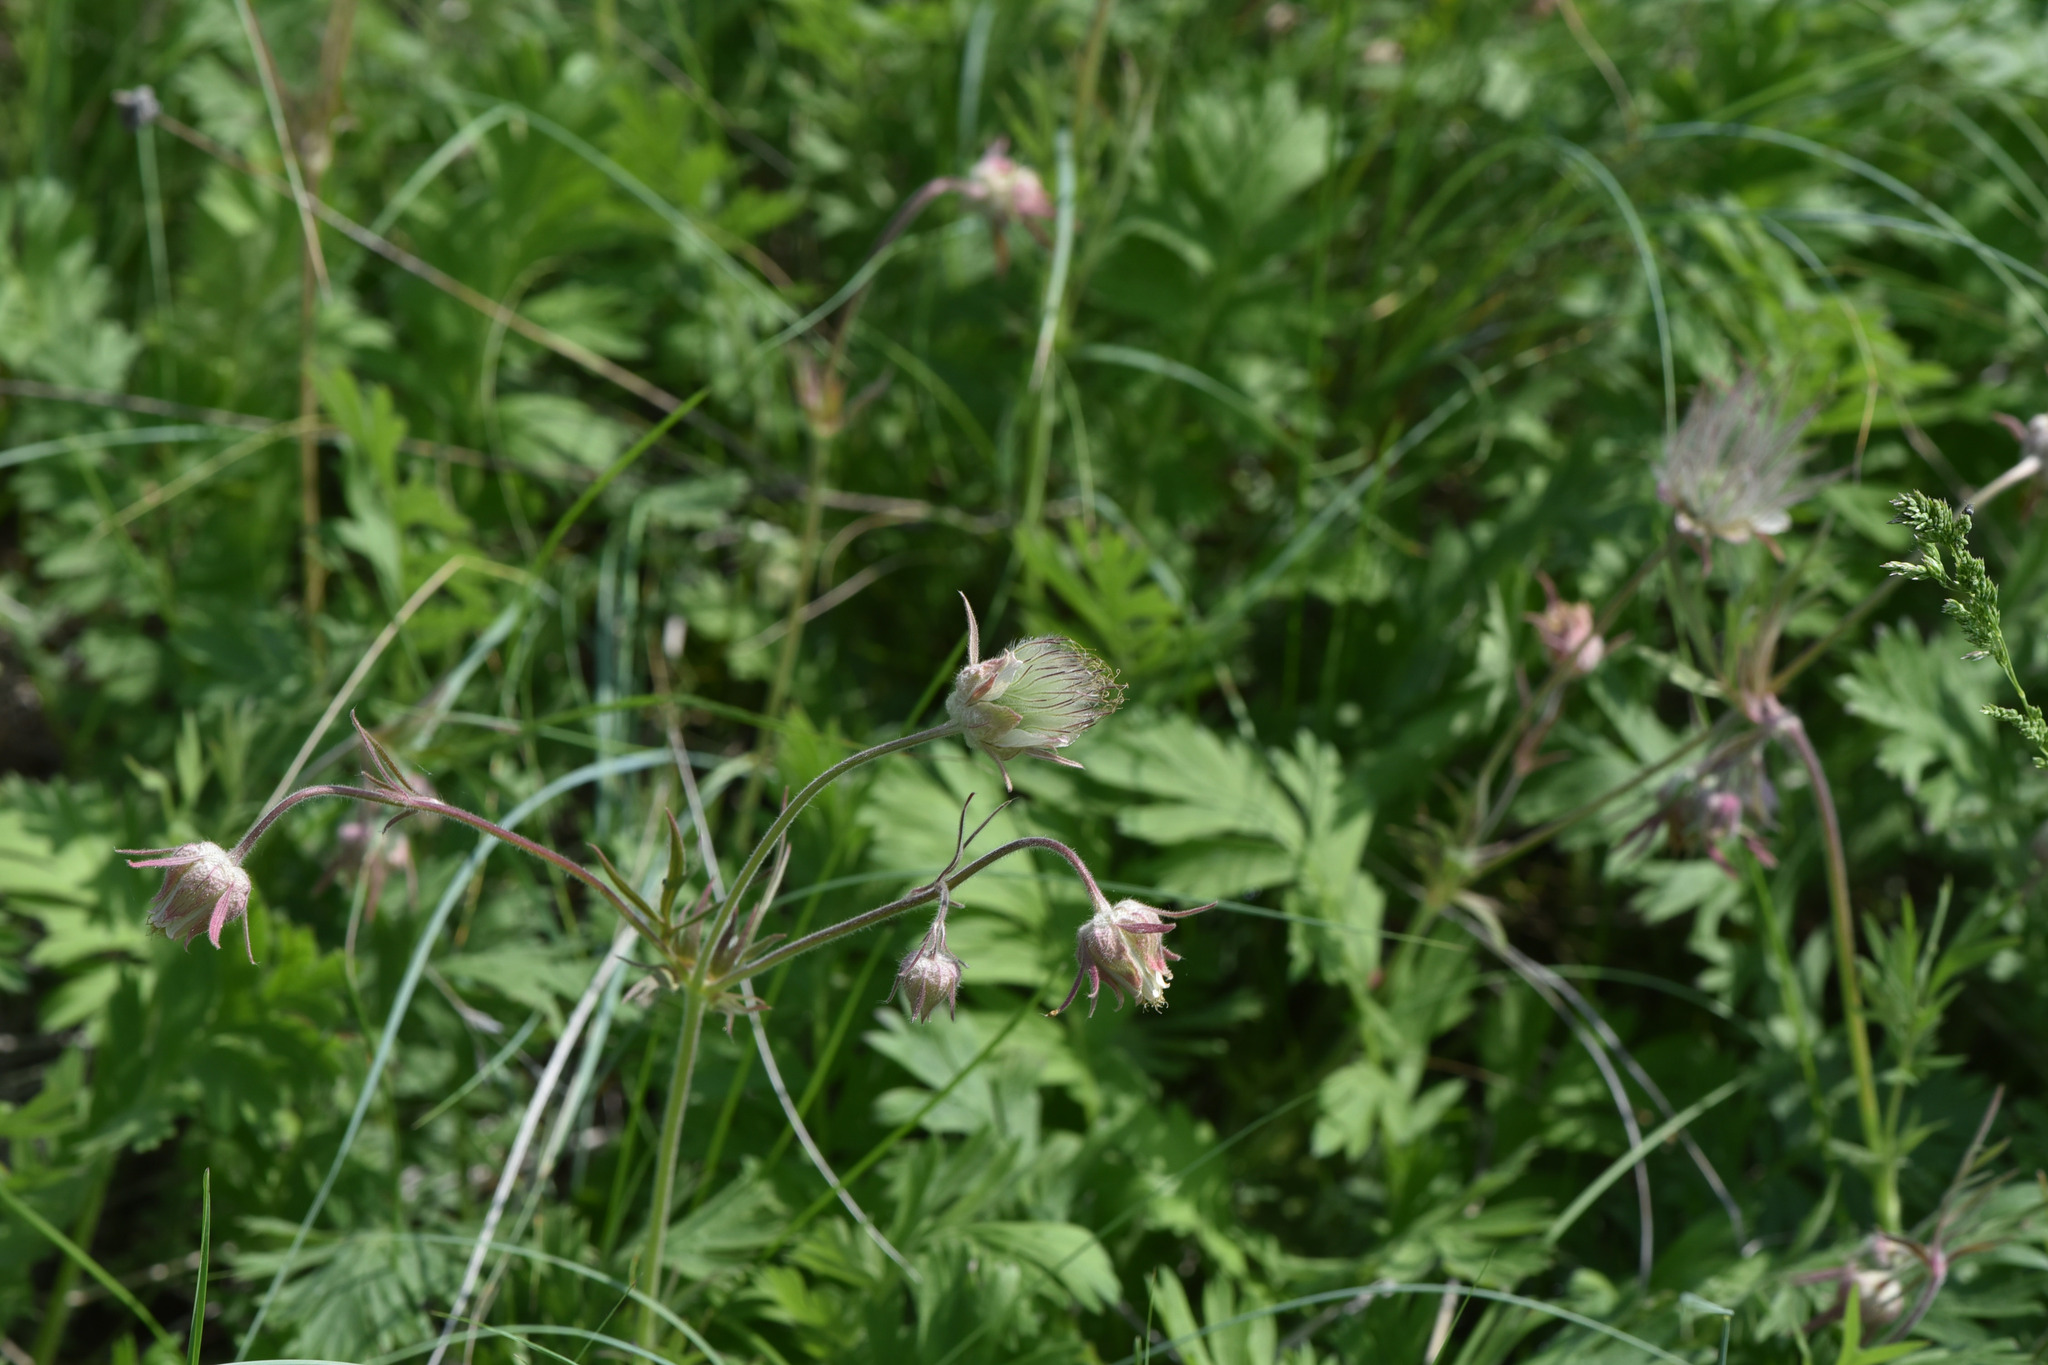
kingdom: Plantae
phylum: Tracheophyta
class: Magnoliopsida
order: Rosales
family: Rosaceae
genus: Geum
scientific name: Geum triflorum
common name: Old man's whiskers
